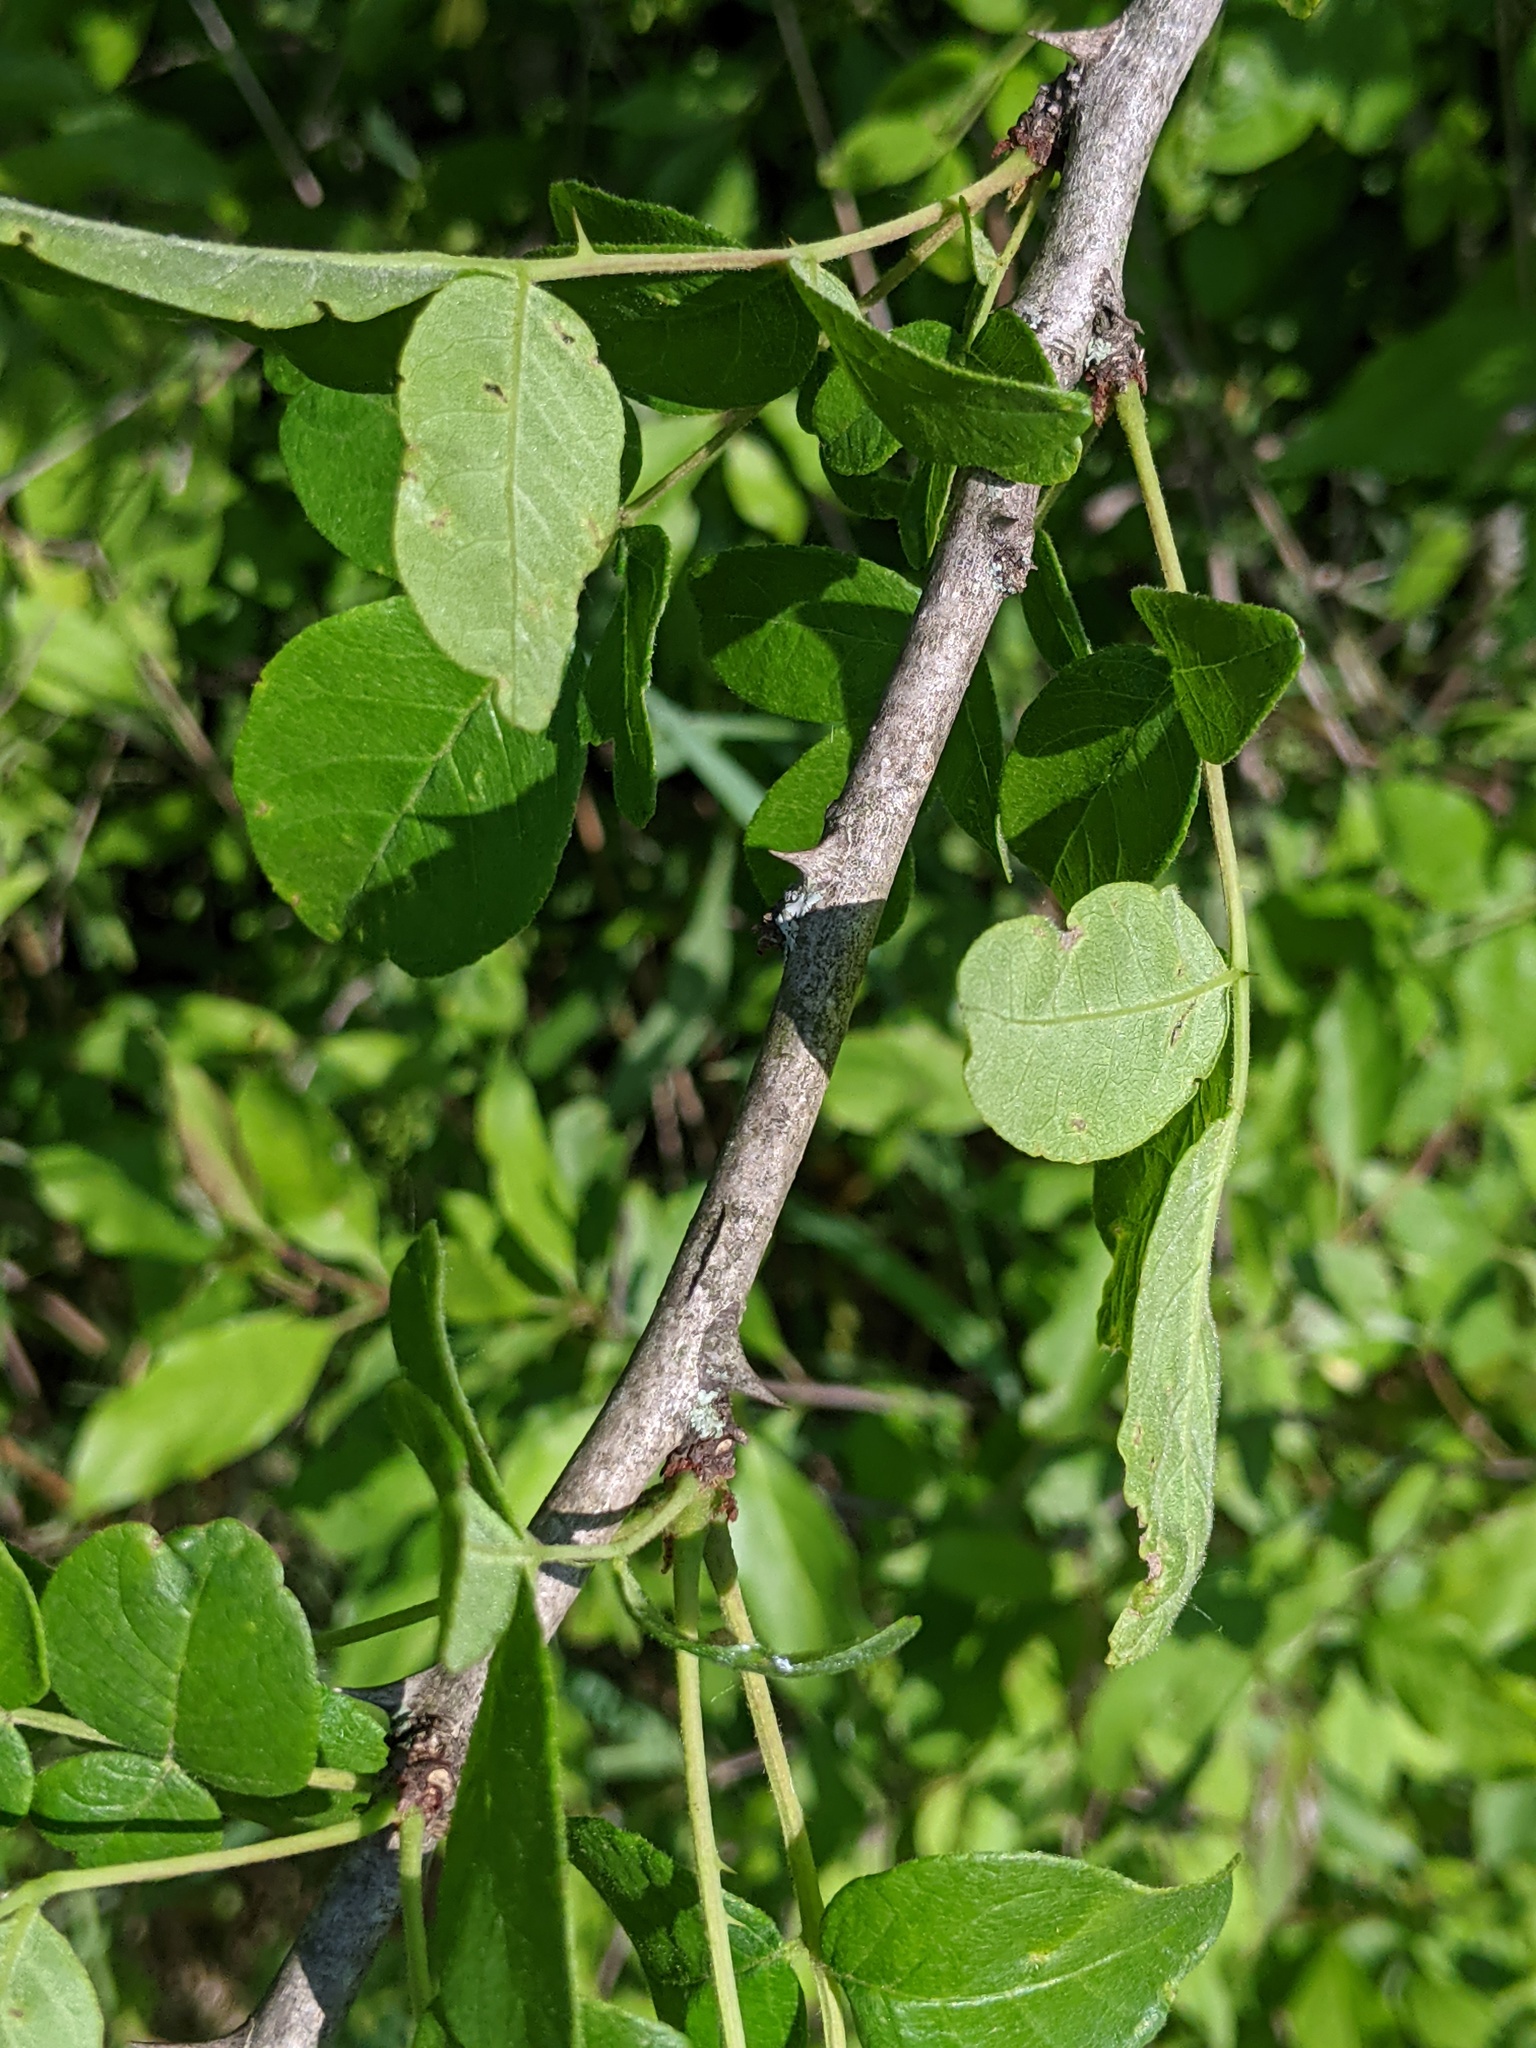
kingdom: Plantae
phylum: Tracheophyta
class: Magnoliopsida
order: Sapindales
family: Rutaceae
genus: Zanthoxylum
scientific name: Zanthoxylum americanum
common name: Northern prickly-ash
